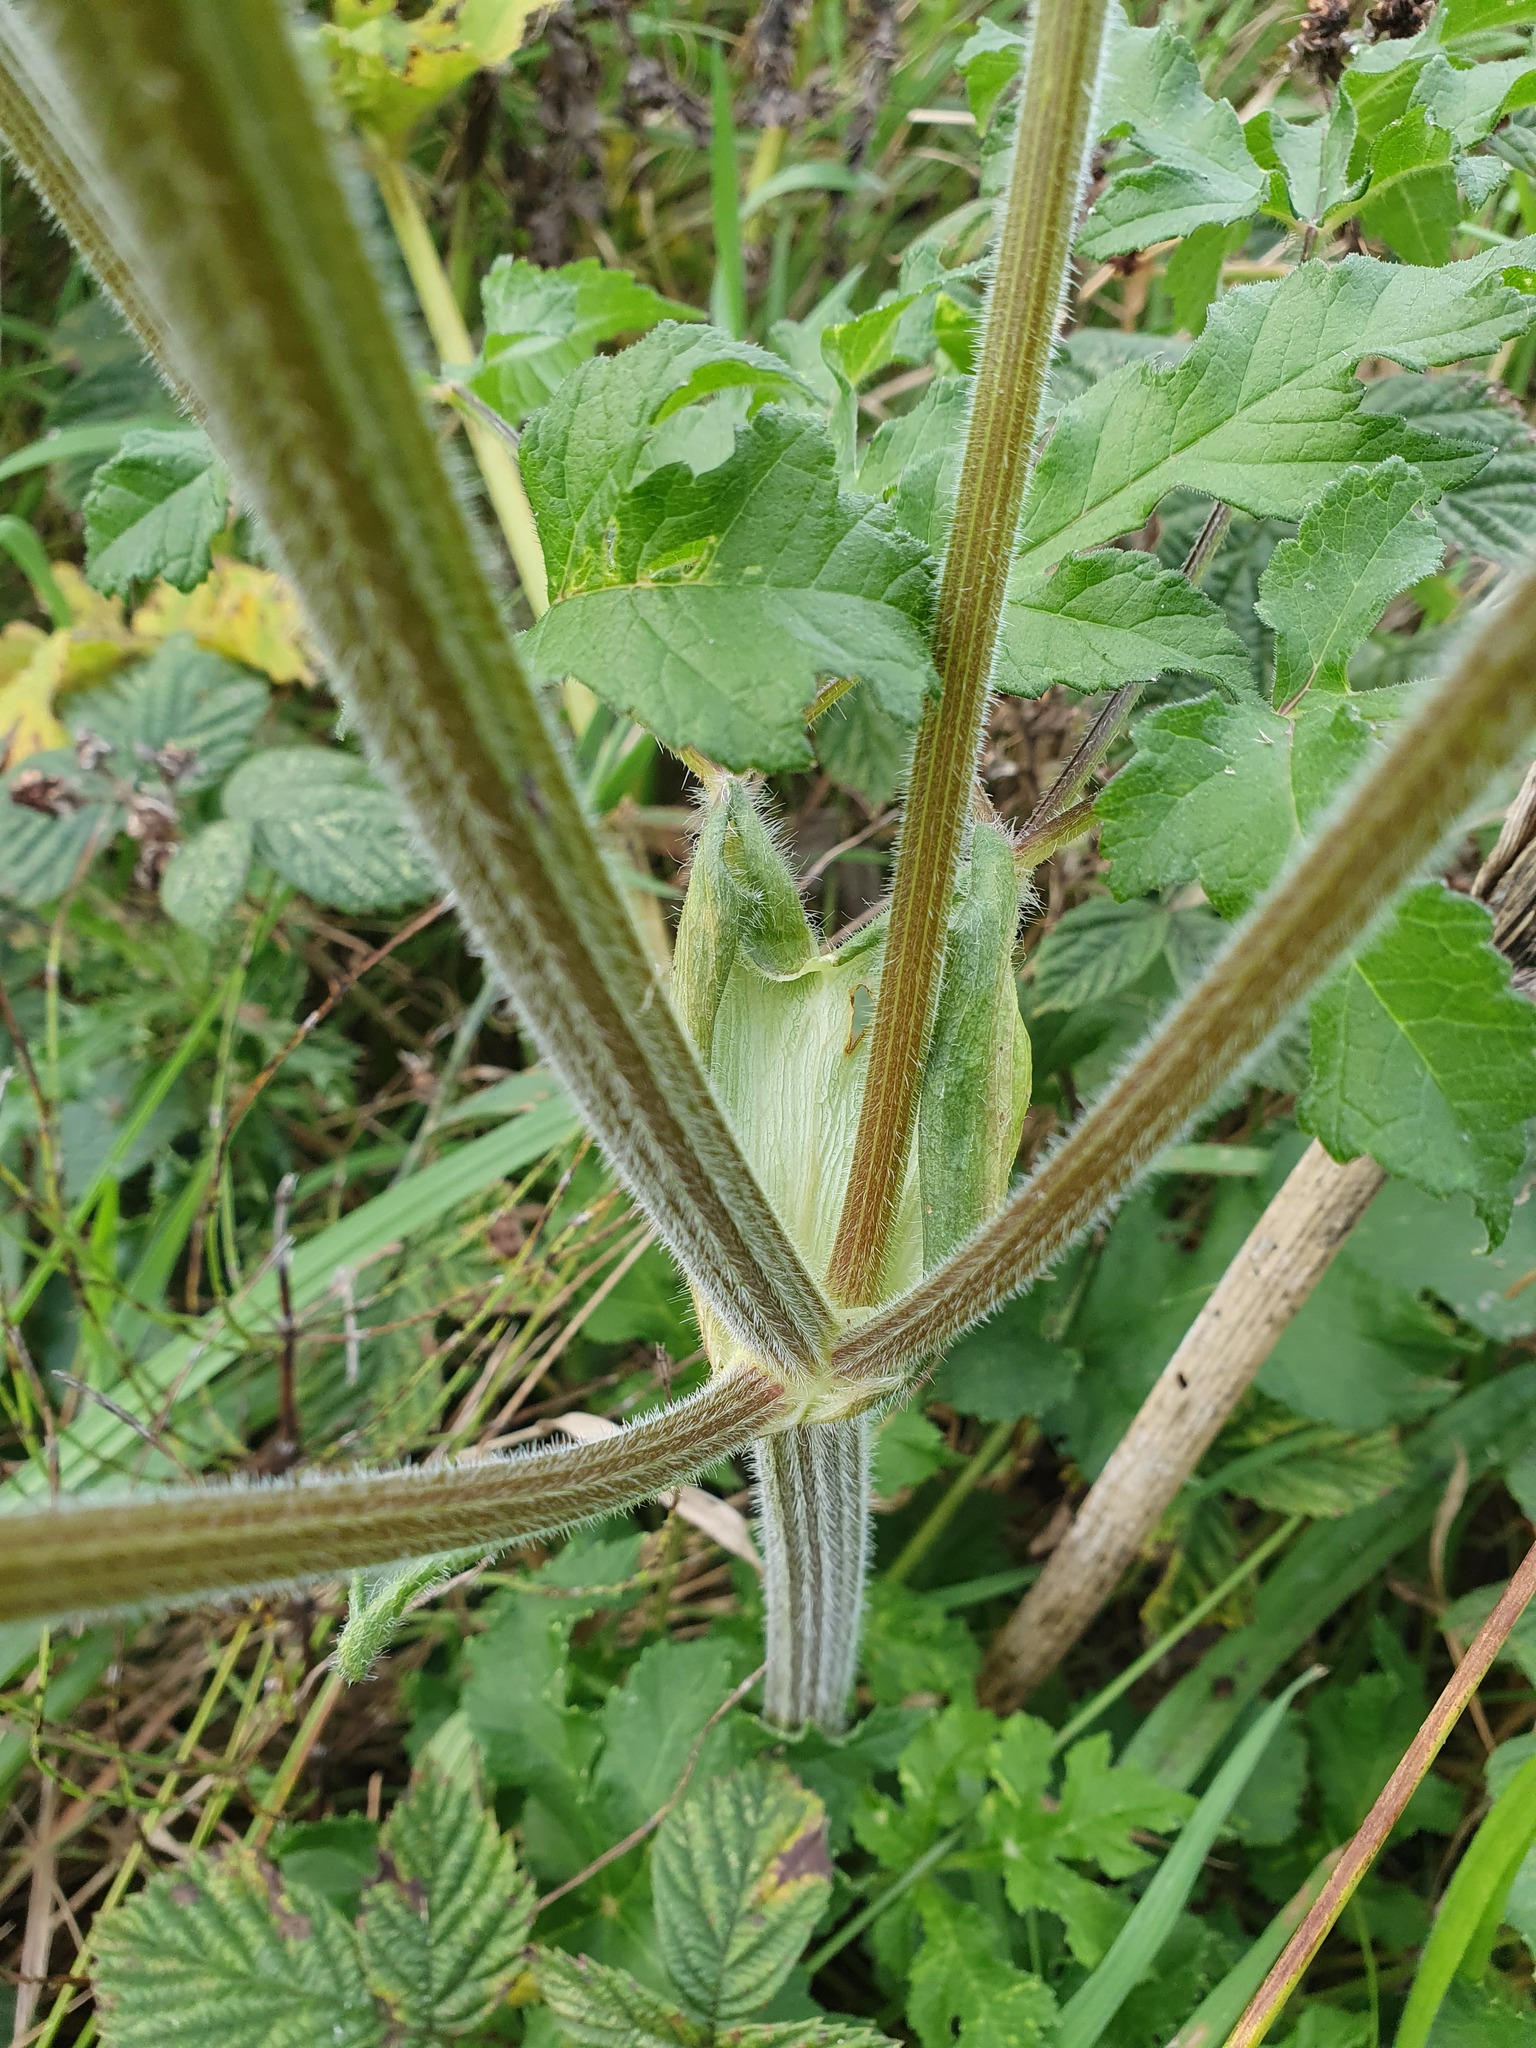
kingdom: Plantae
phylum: Tracheophyta
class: Magnoliopsida
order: Apiales
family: Apiaceae
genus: Heracleum
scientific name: Heracleum sphondylium
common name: Hogweed
